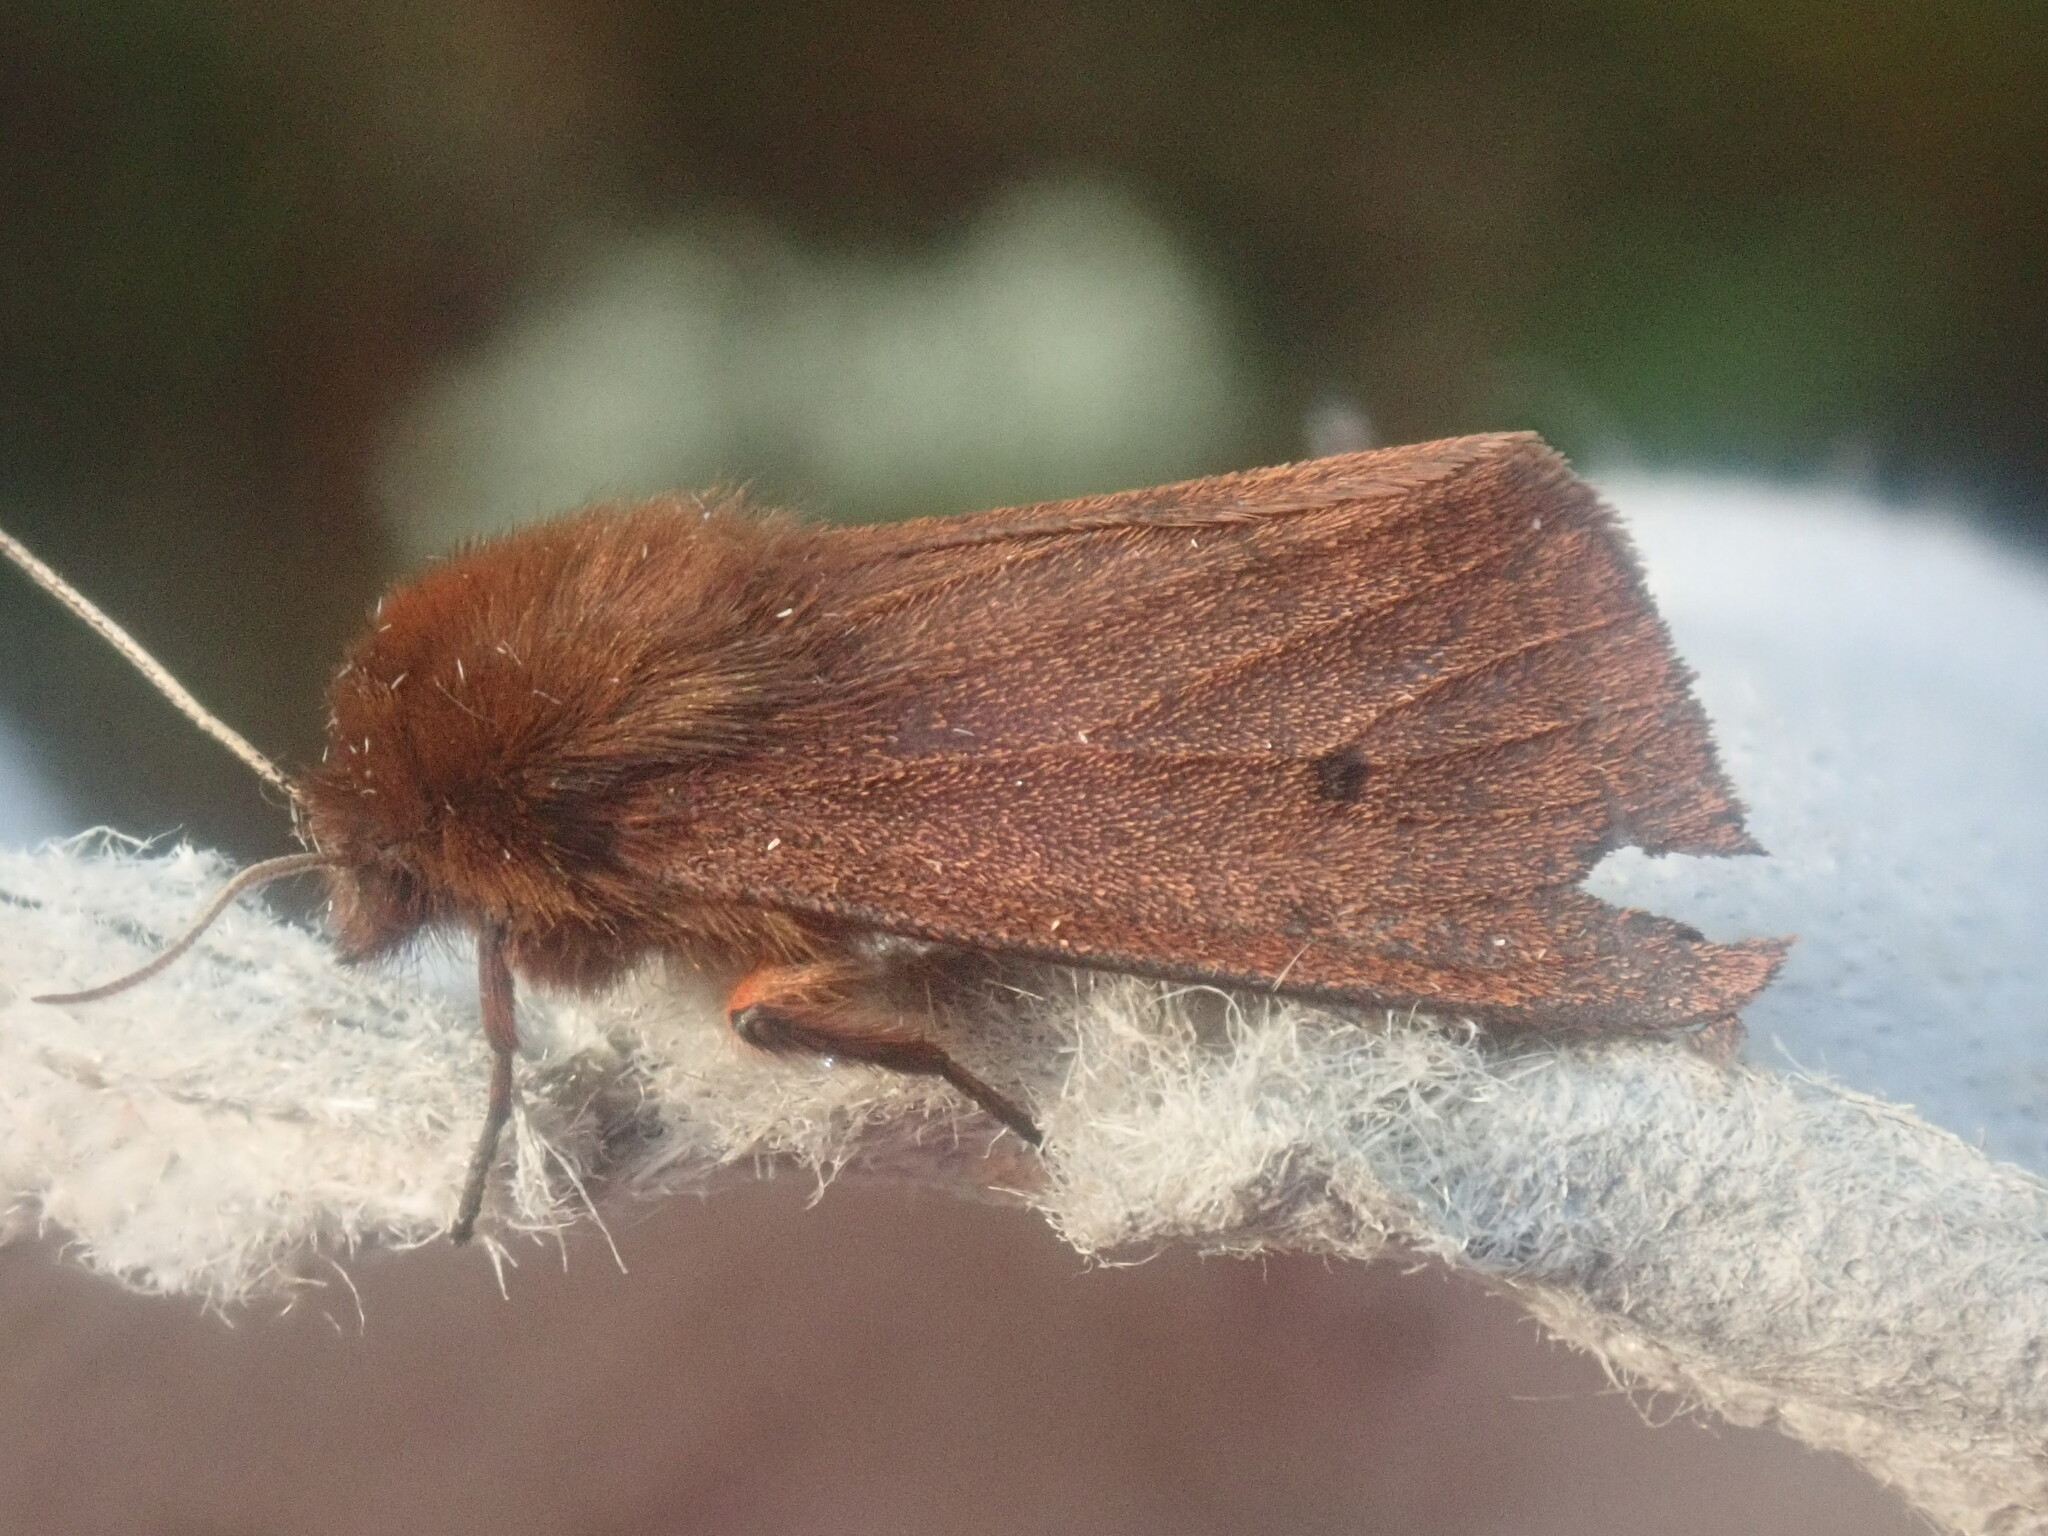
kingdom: Animalia
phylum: Arthropoda
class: Insecta
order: Lepidoptera
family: Erebidae
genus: Phragmatobia
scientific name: Phragmatobia fuliginosa
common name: Ruby tiger
